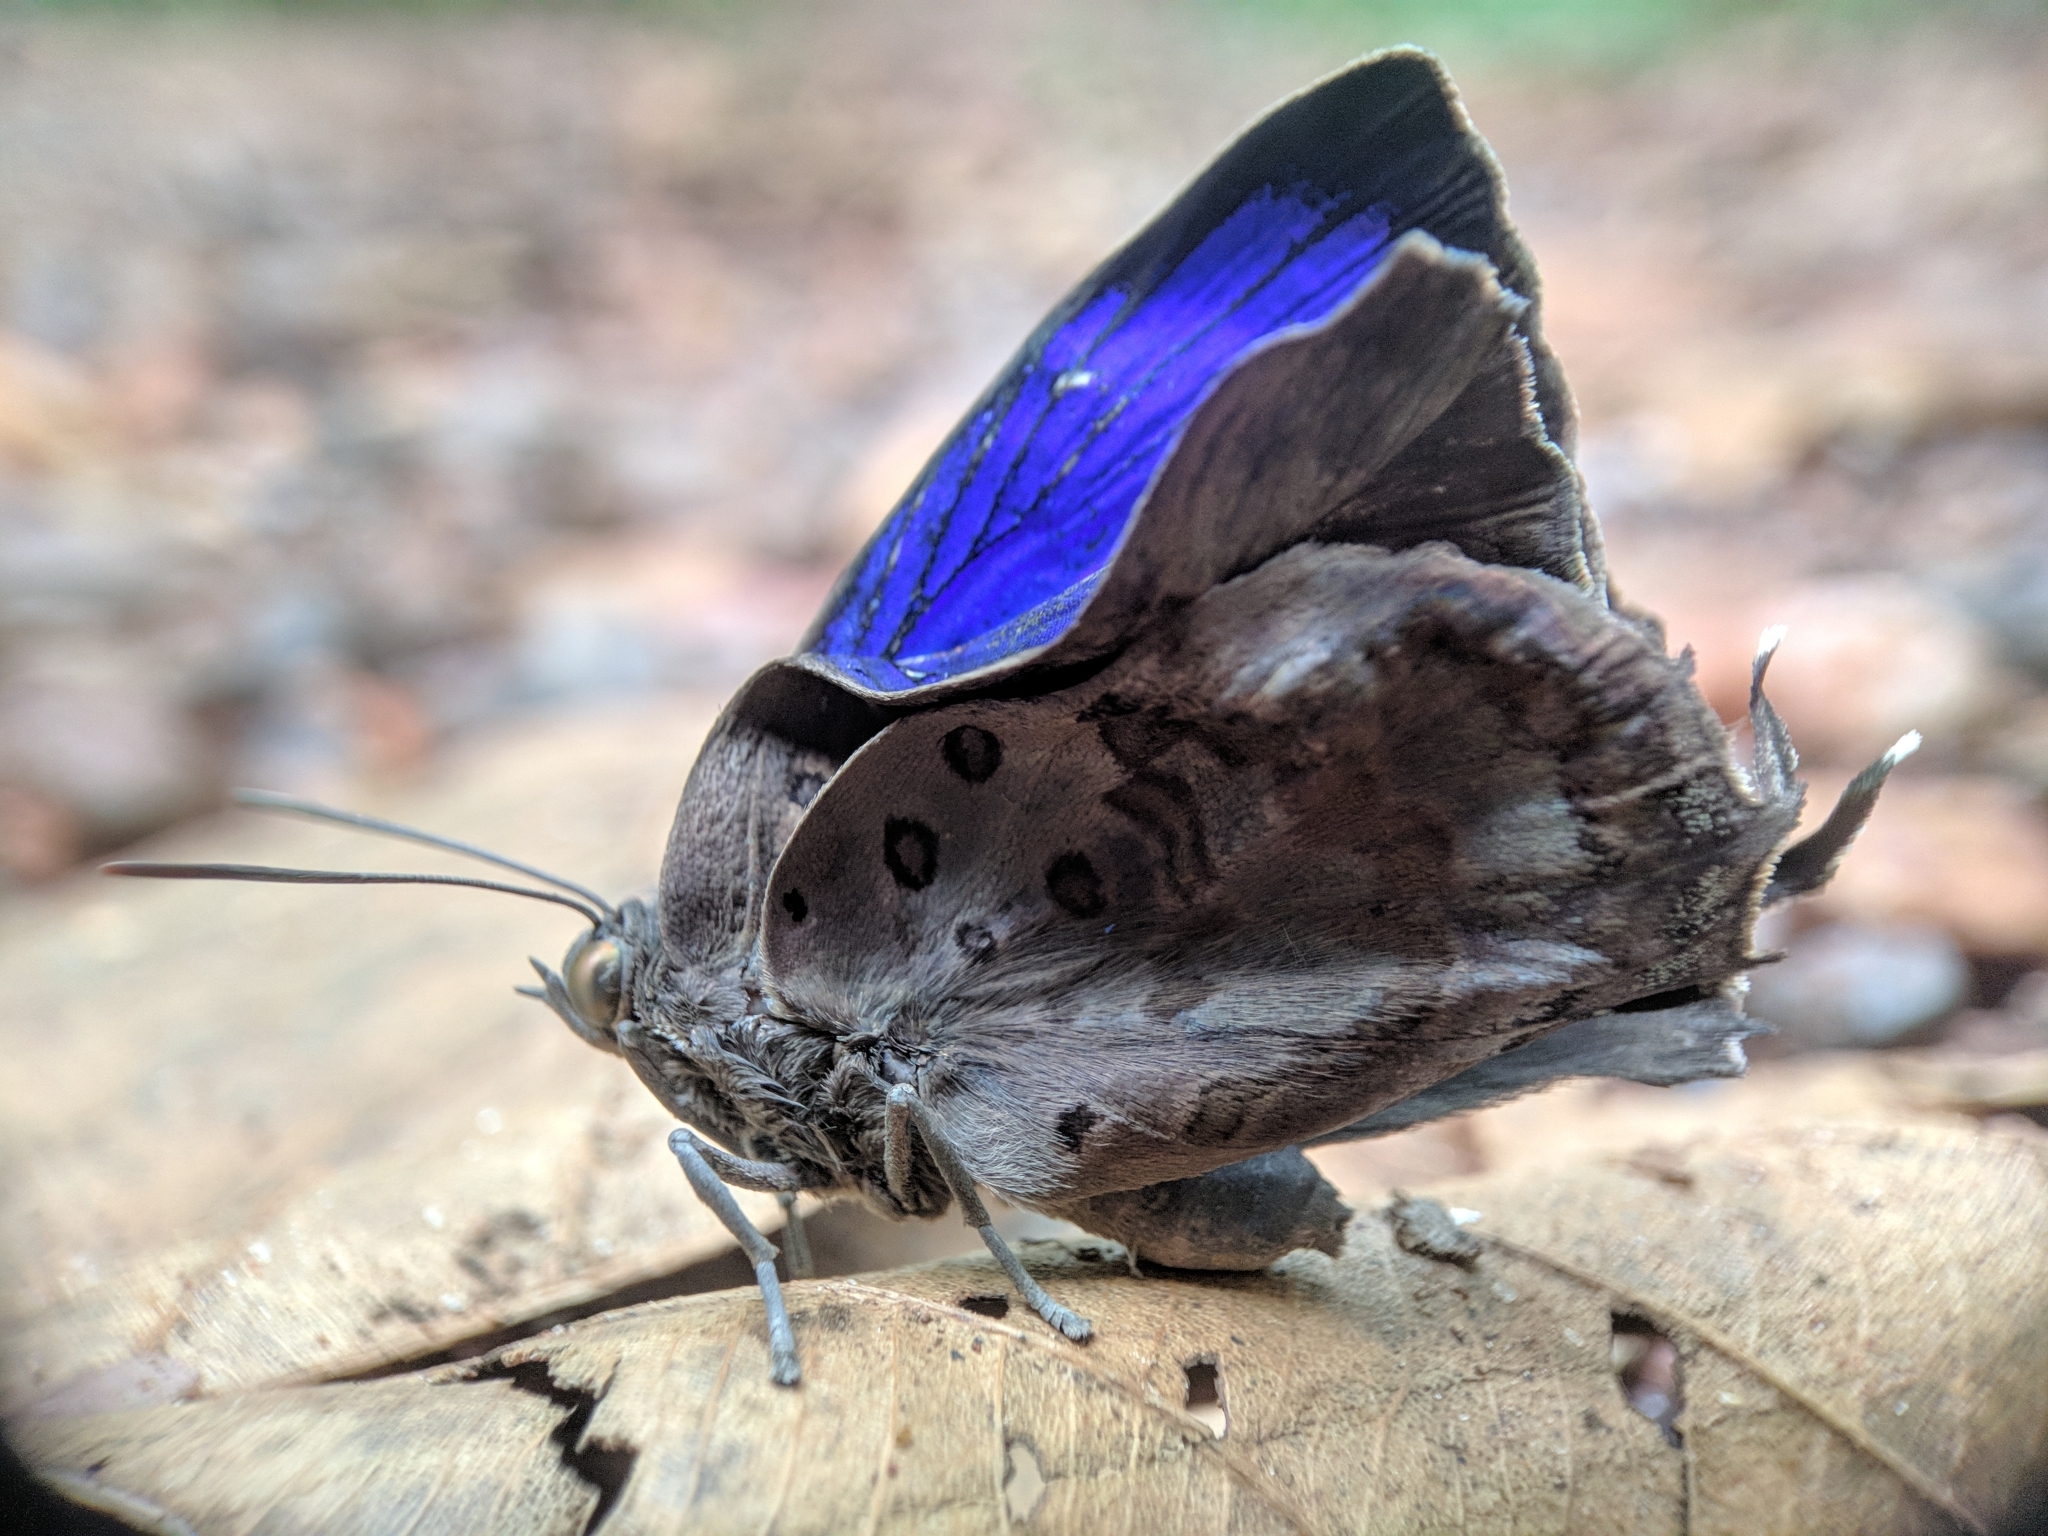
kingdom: Animalia
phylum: Arthropoda
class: Insecta
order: Lepidoptera
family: Lycaenidae
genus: Arhopala
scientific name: Arhopala amantes
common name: Large oakblue
